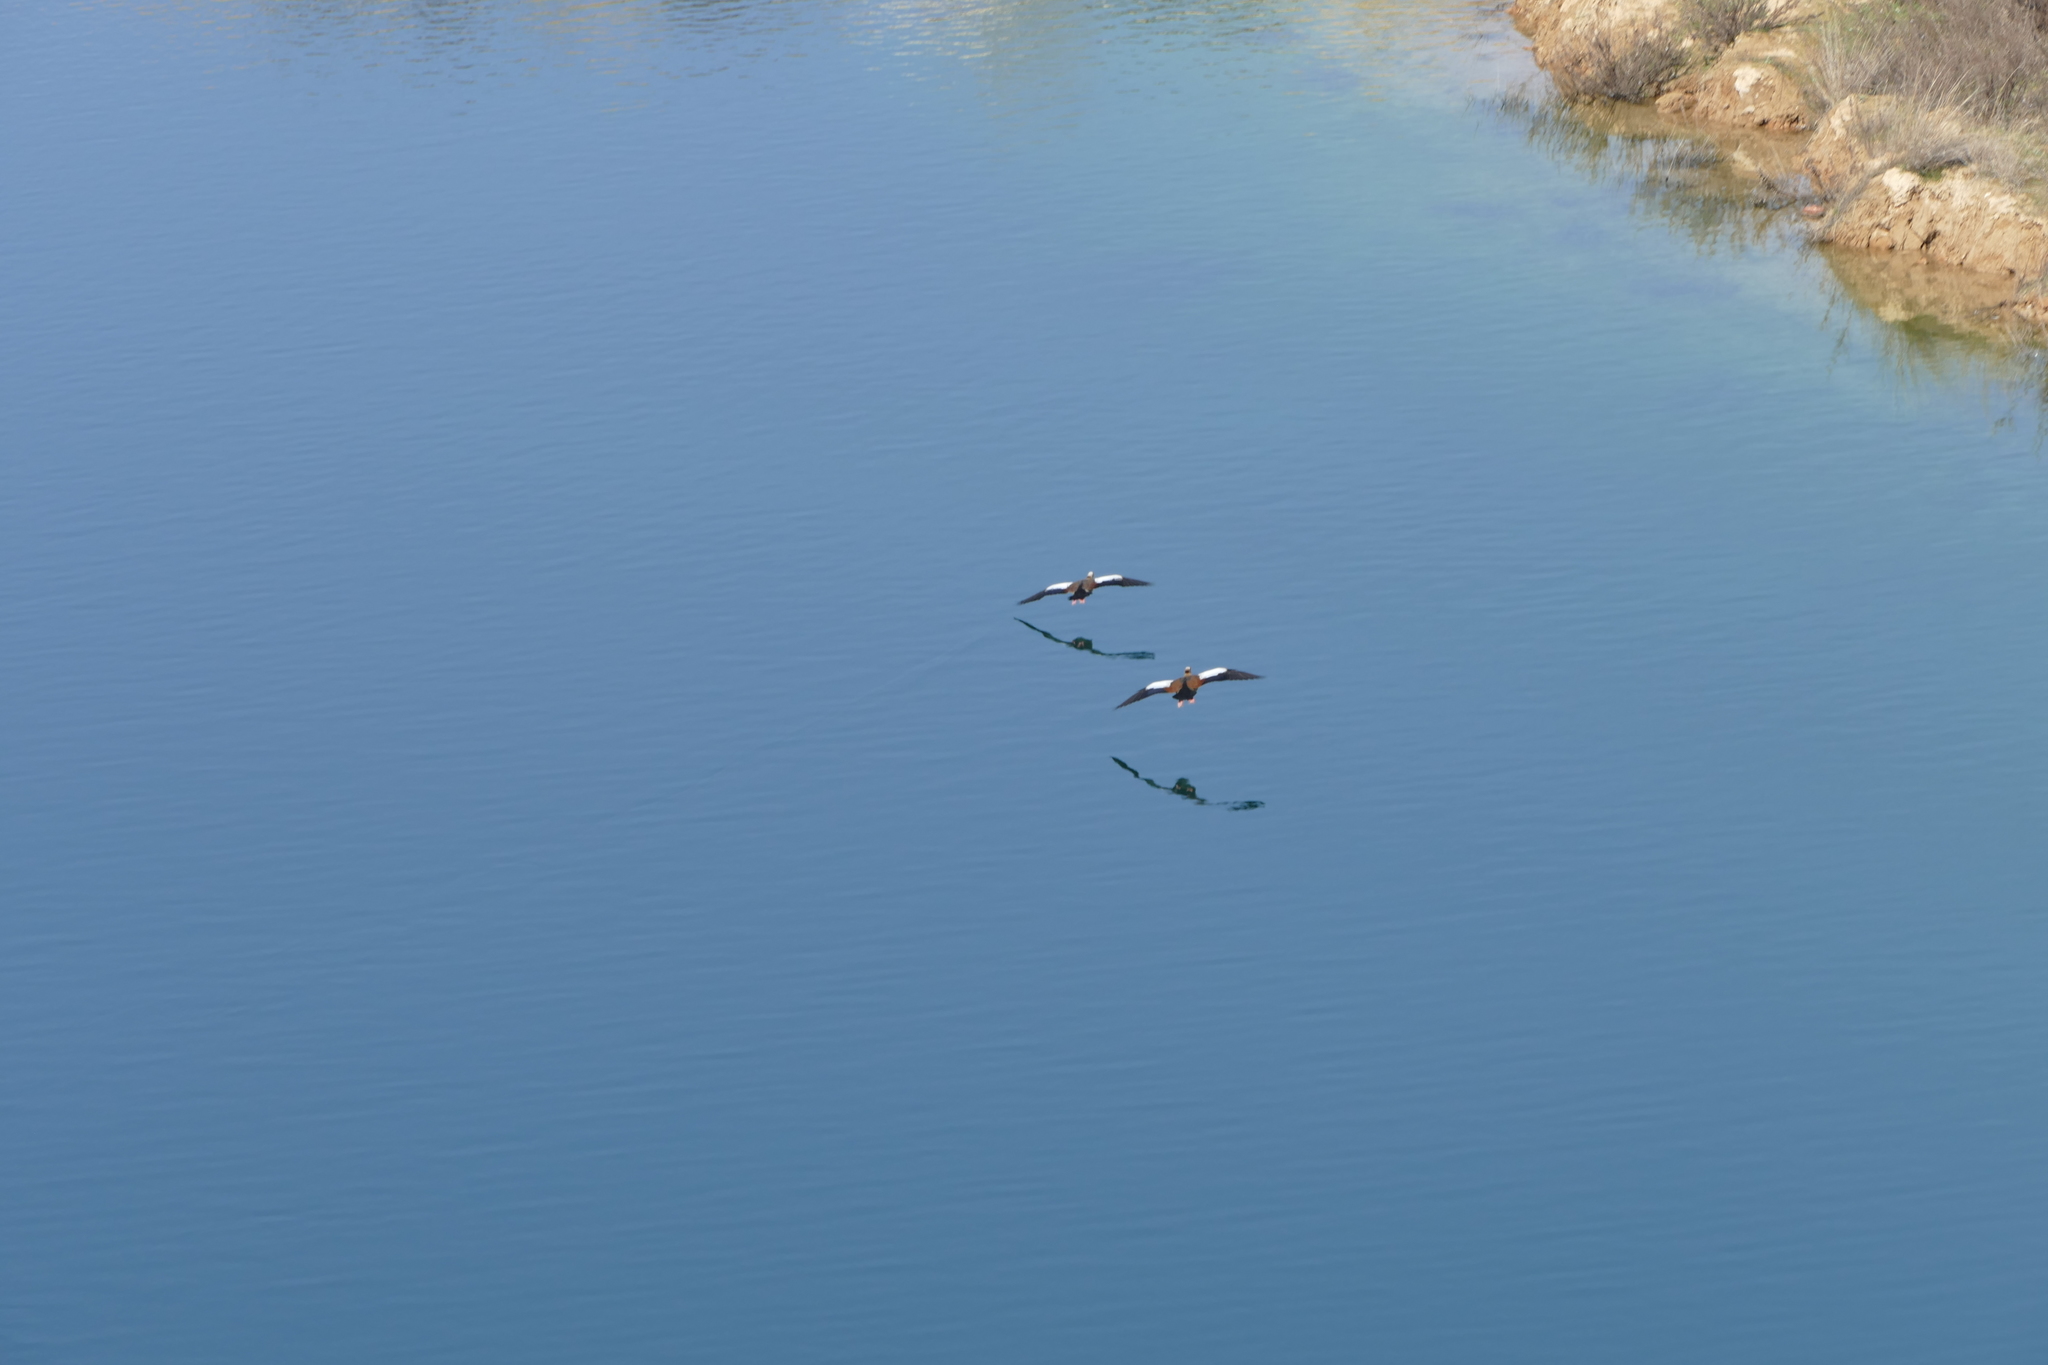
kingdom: Animalia
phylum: Chordata
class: Aves
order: Anseriformes
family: Anatidae
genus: Alopochen
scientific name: Alopochen aegyptiaca
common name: Egyptian goose
